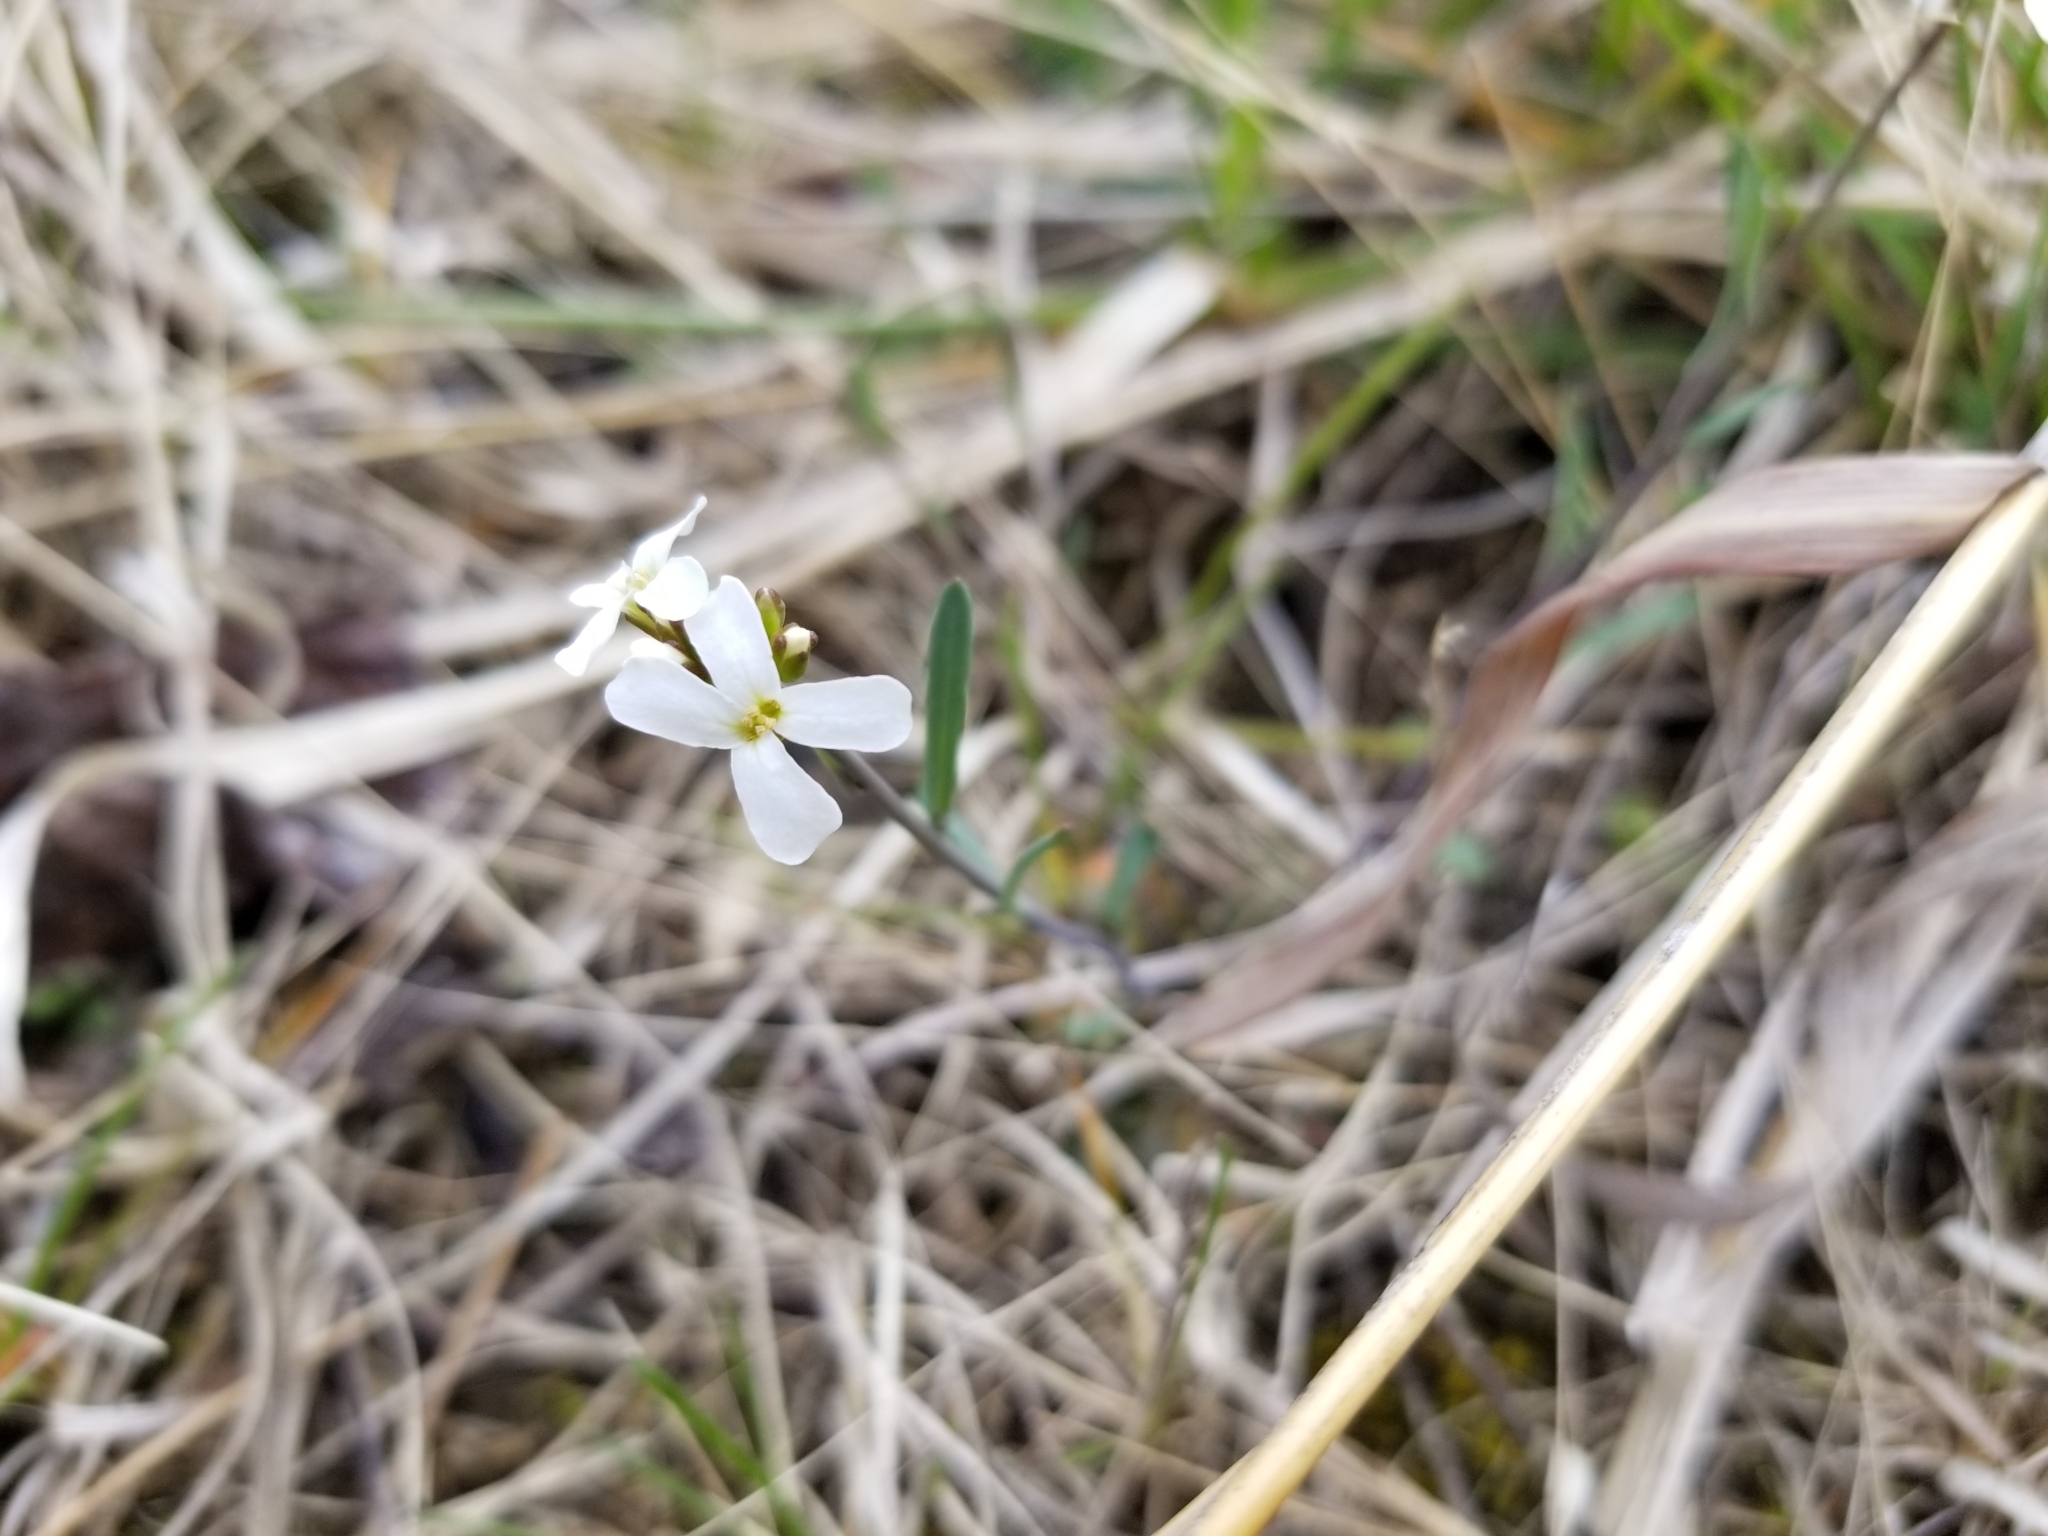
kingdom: Plantae
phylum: Tracheophyta
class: Magnoliopsida
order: Brassicales
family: Brassicaceae
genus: Arabidopsis
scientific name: Arabidopsis lyrata
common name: Lyrate rockcress
